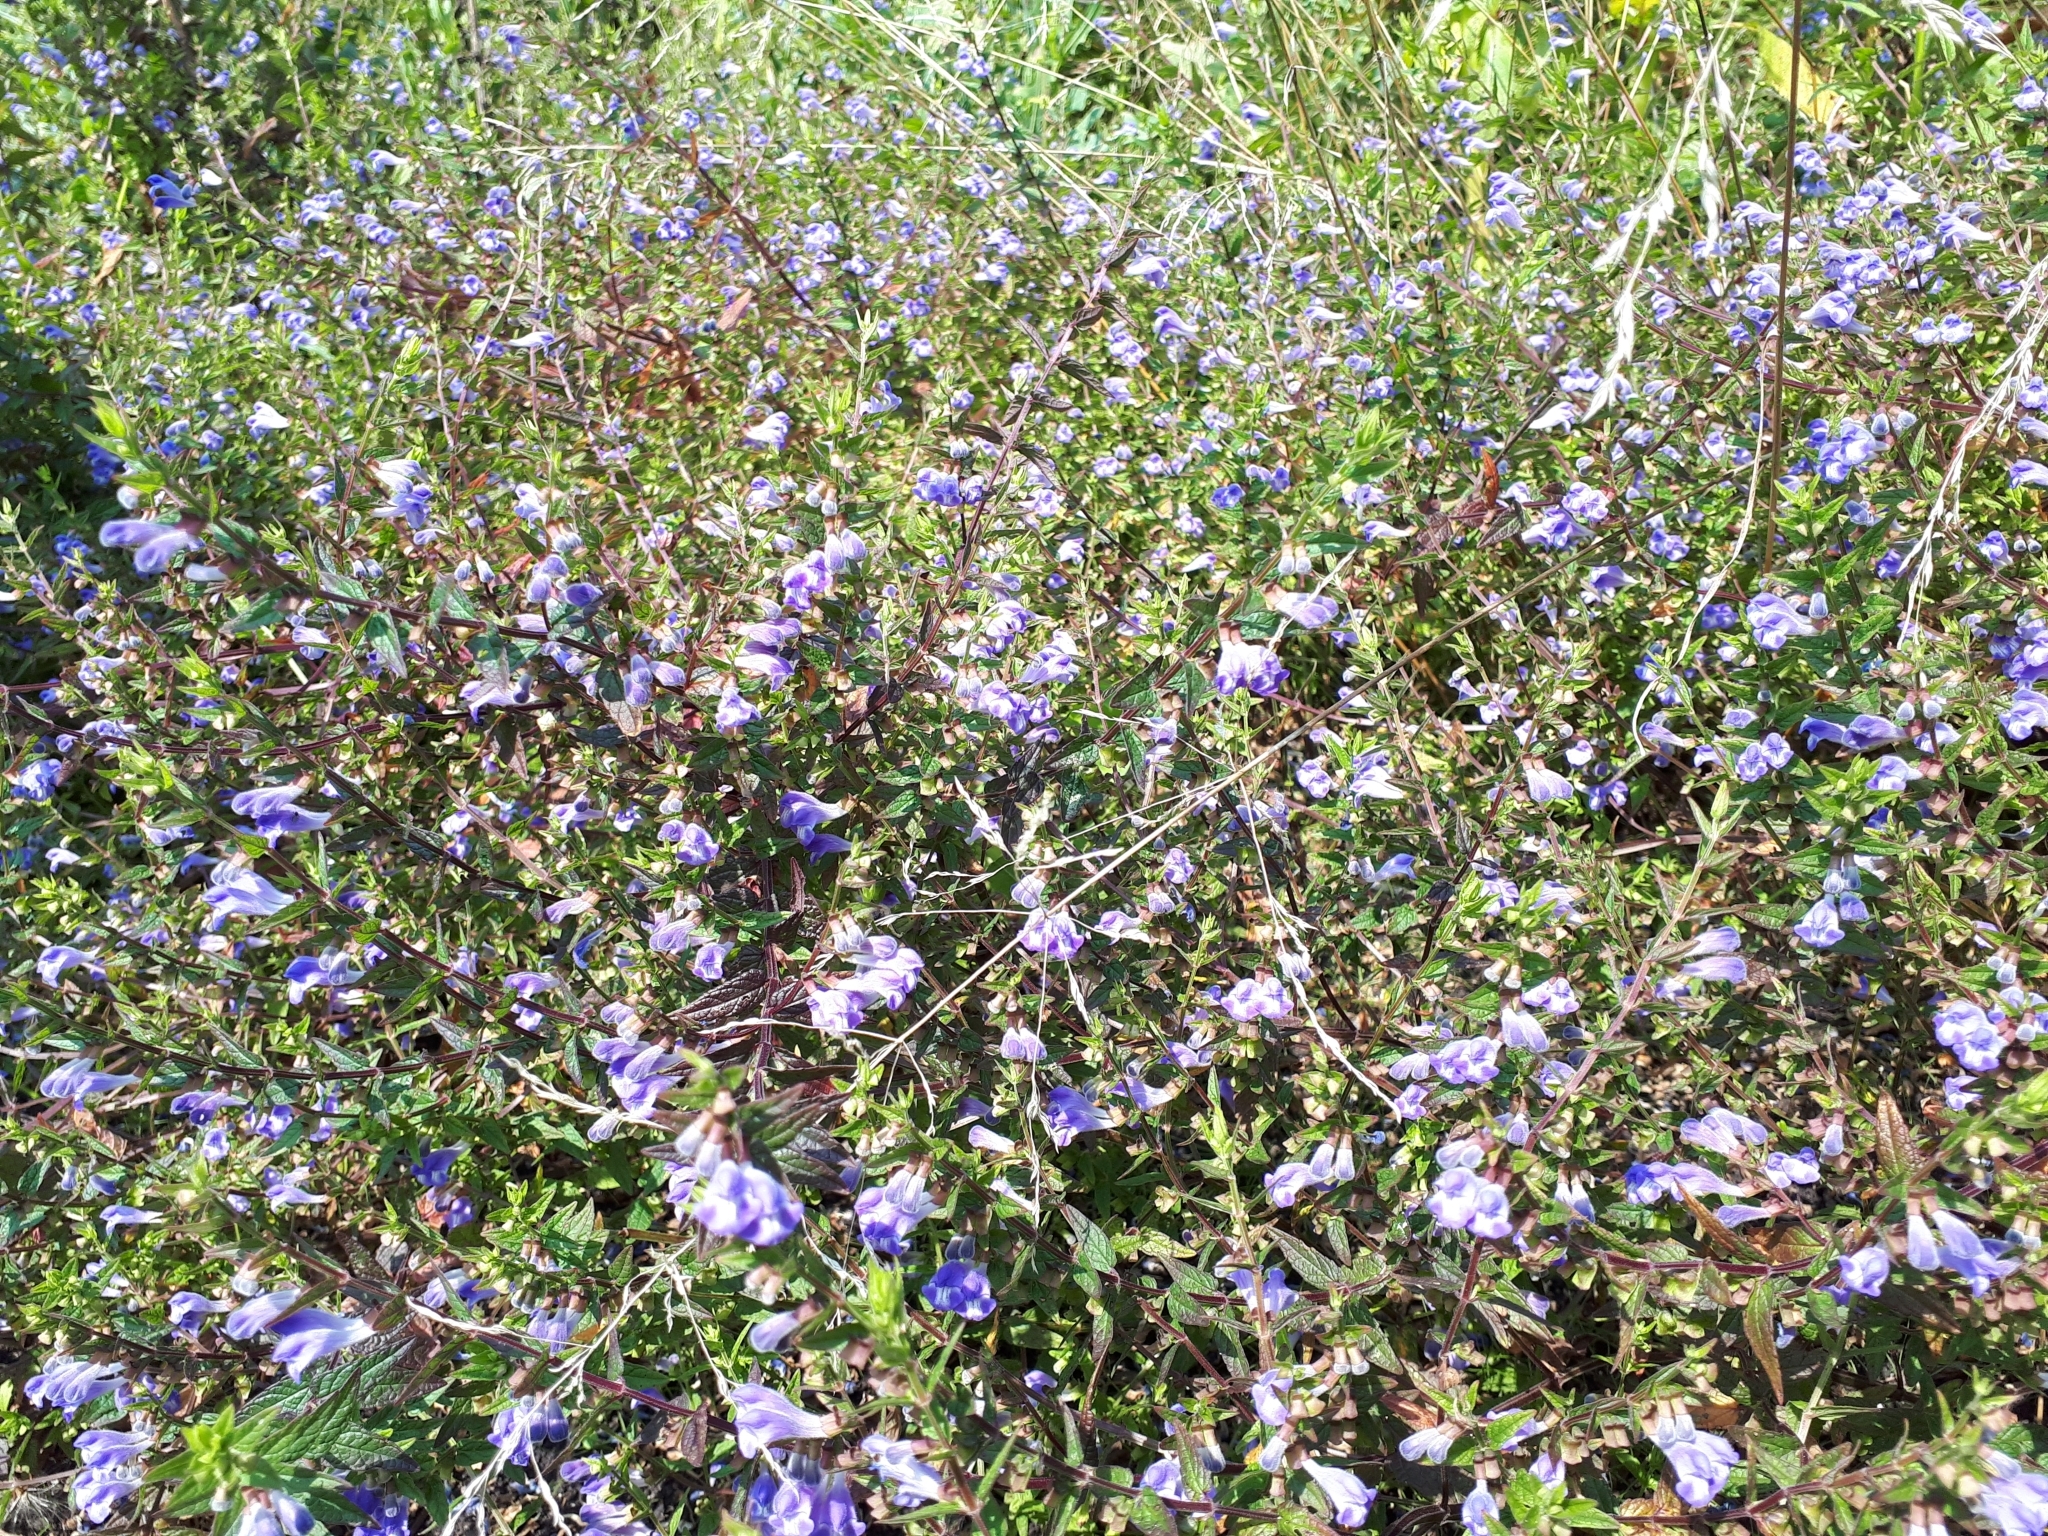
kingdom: Plantae
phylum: Tracheophyta
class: Magnoliopsida
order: Lamiales
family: Lamiaceae
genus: Scutellaria
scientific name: Scutellaria galericulata
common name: Skullcap
